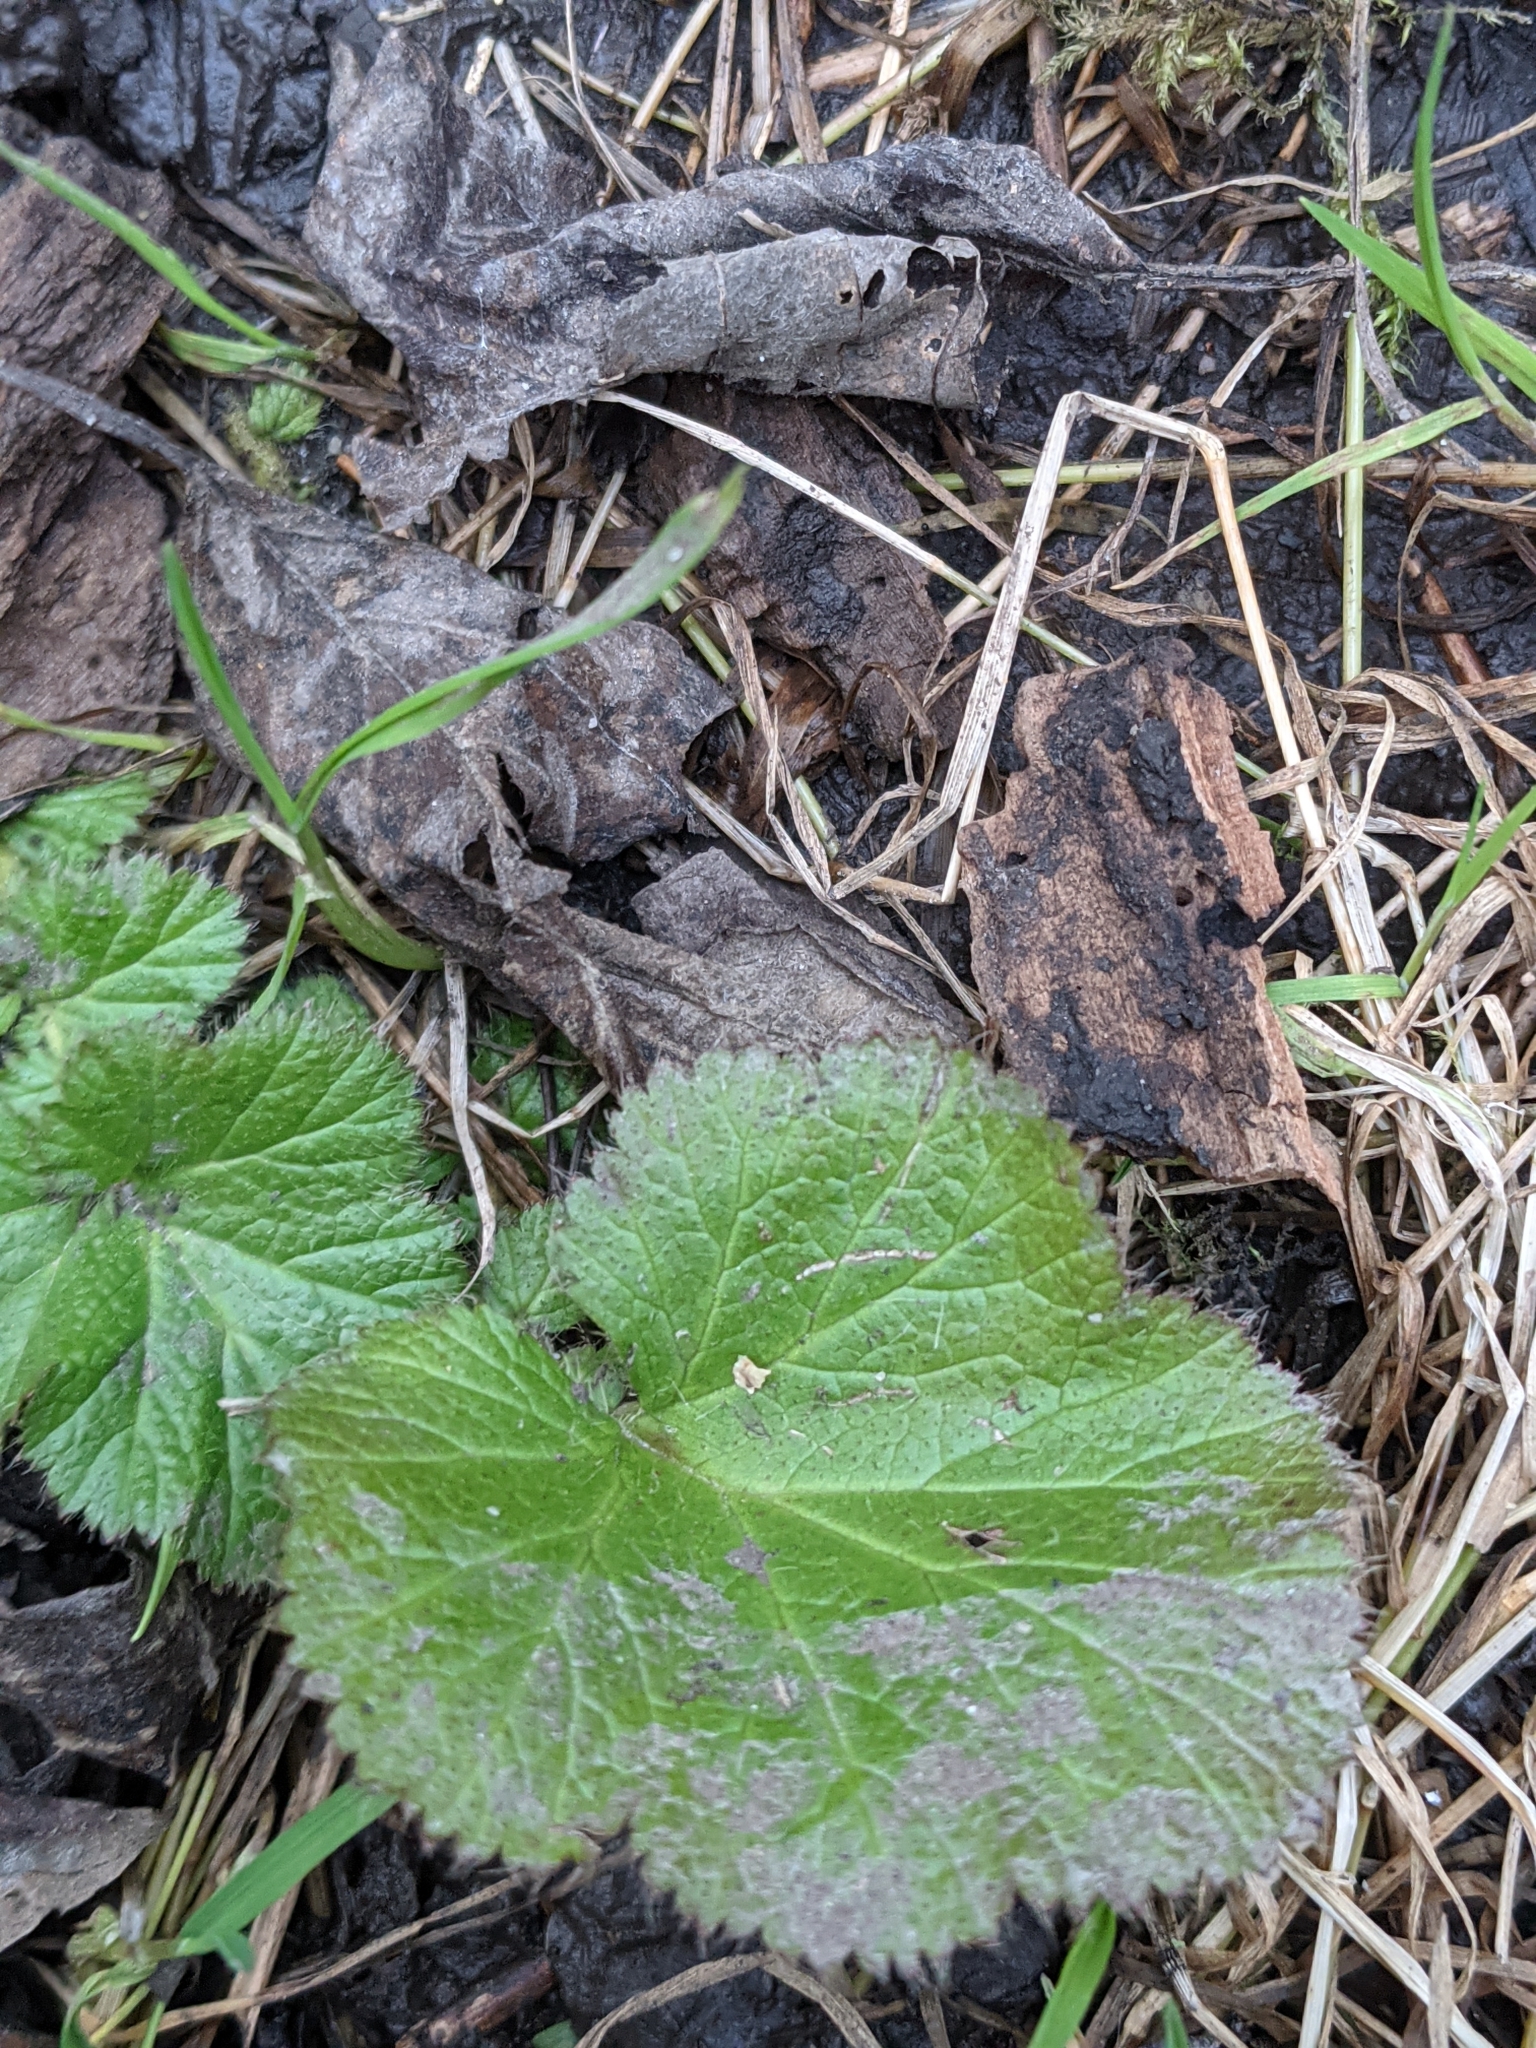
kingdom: Plantae
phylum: Tracheophyta
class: Magnoliopsida
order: Rosales
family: Rosaceae
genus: Geum
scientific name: Geum macrophyllum
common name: Large-leaved avens
